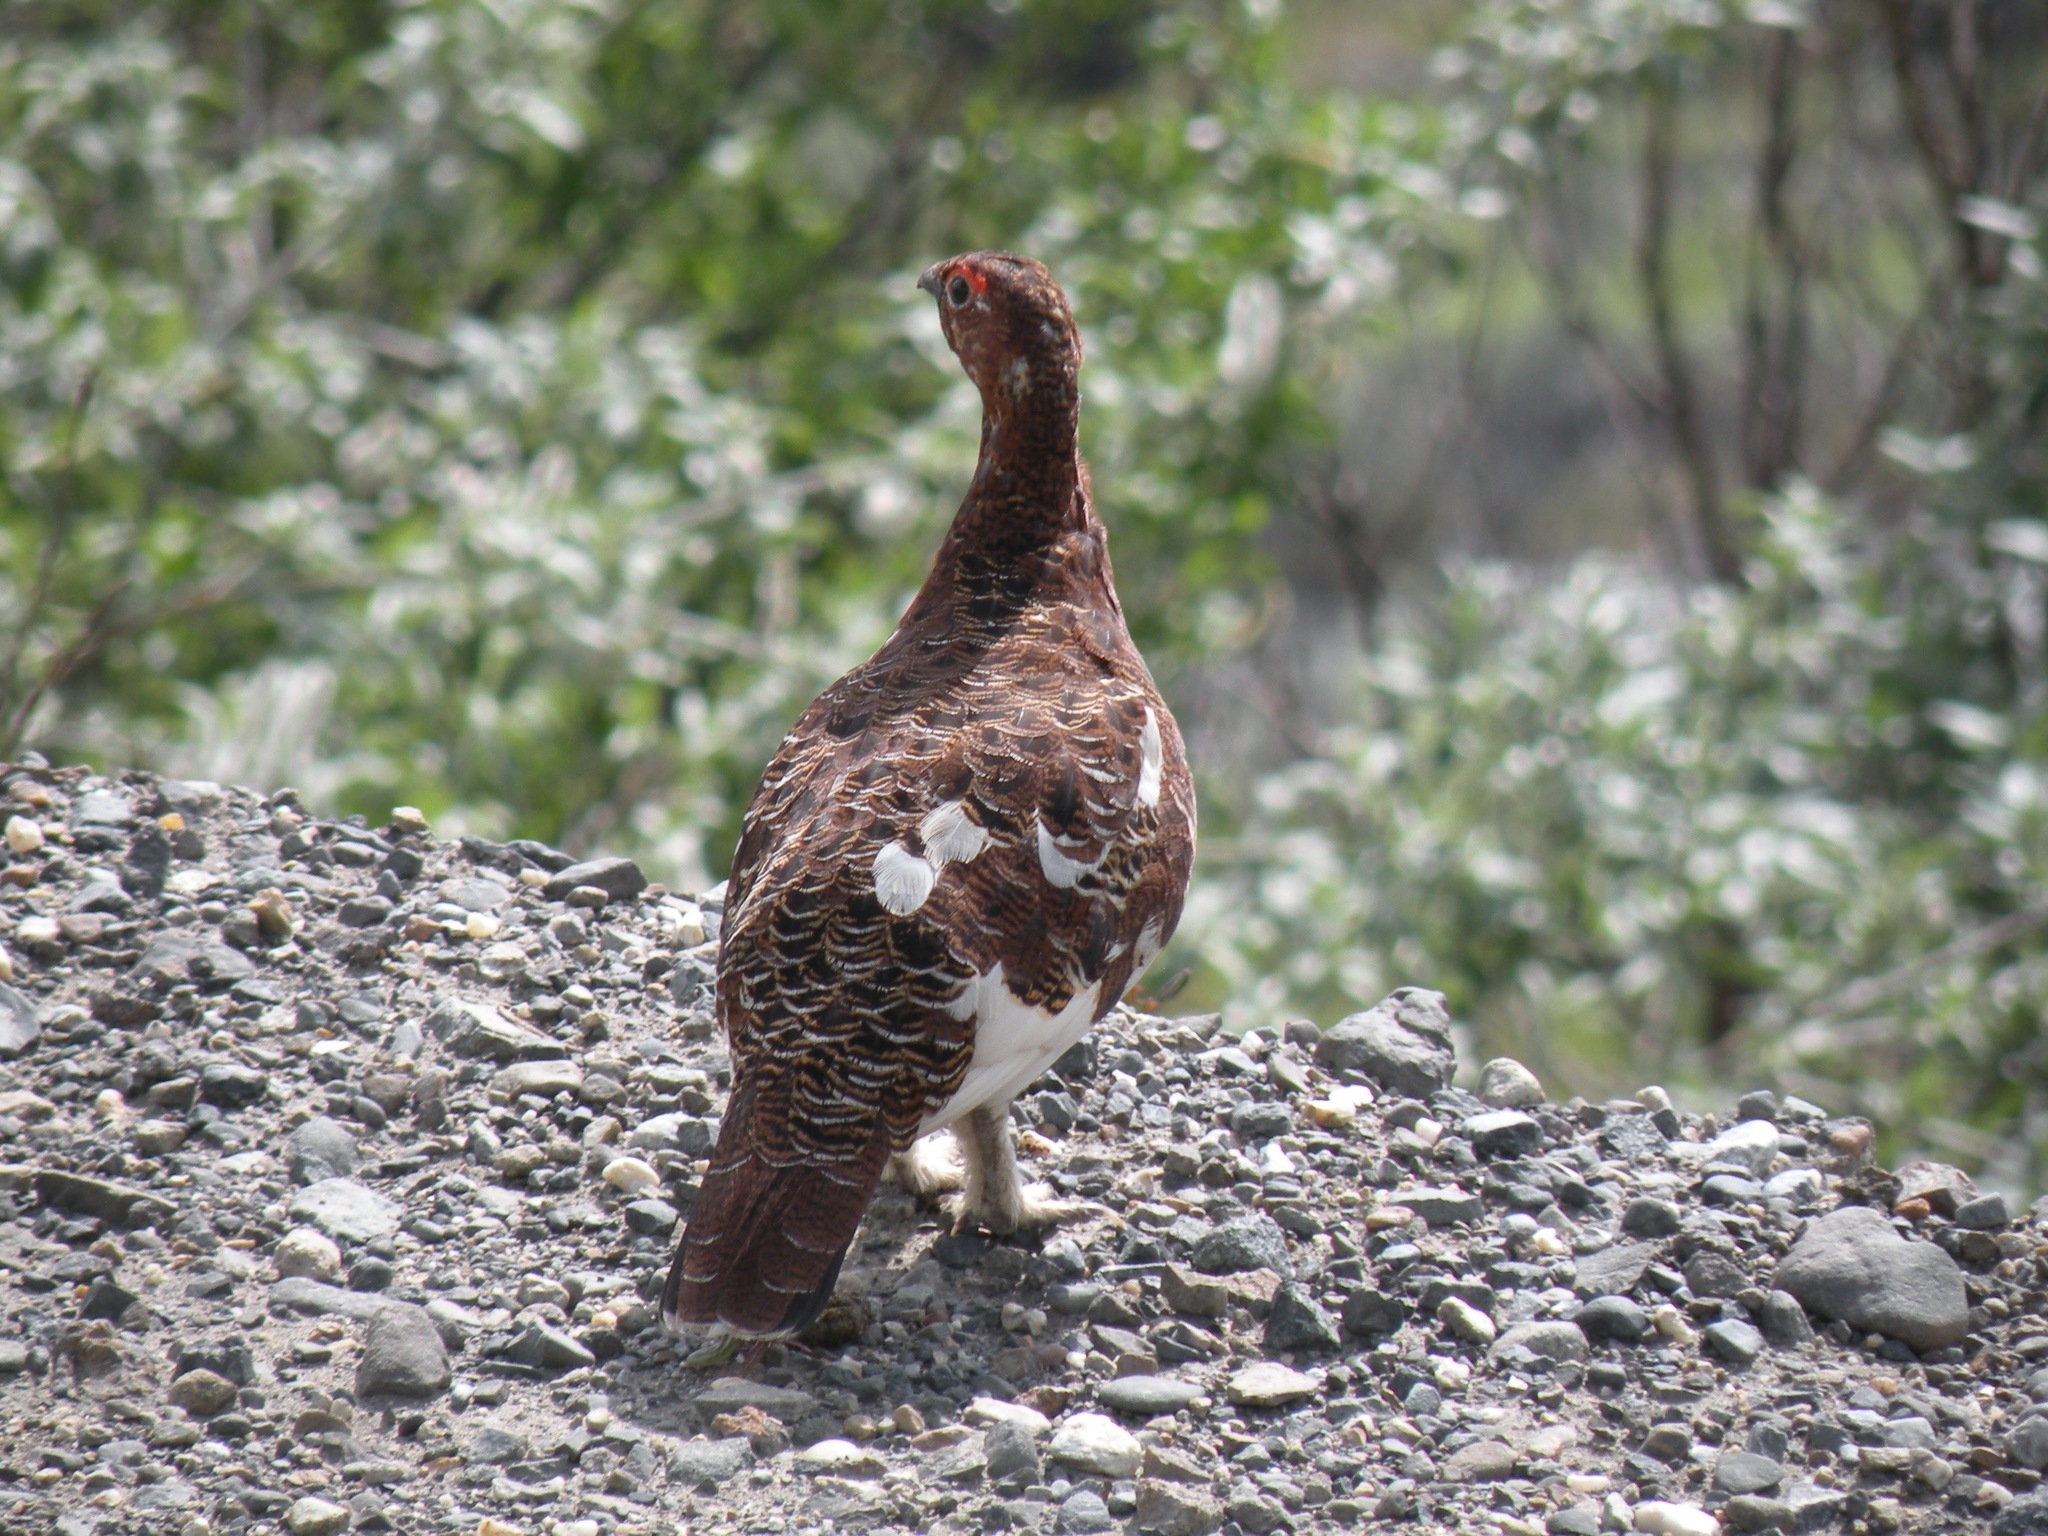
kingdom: Animalia
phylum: Chordata
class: Aves
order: Galliformes
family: Phasianidae
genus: Lagopus
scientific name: Lagopus lagopus
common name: Willow ptarmigan
